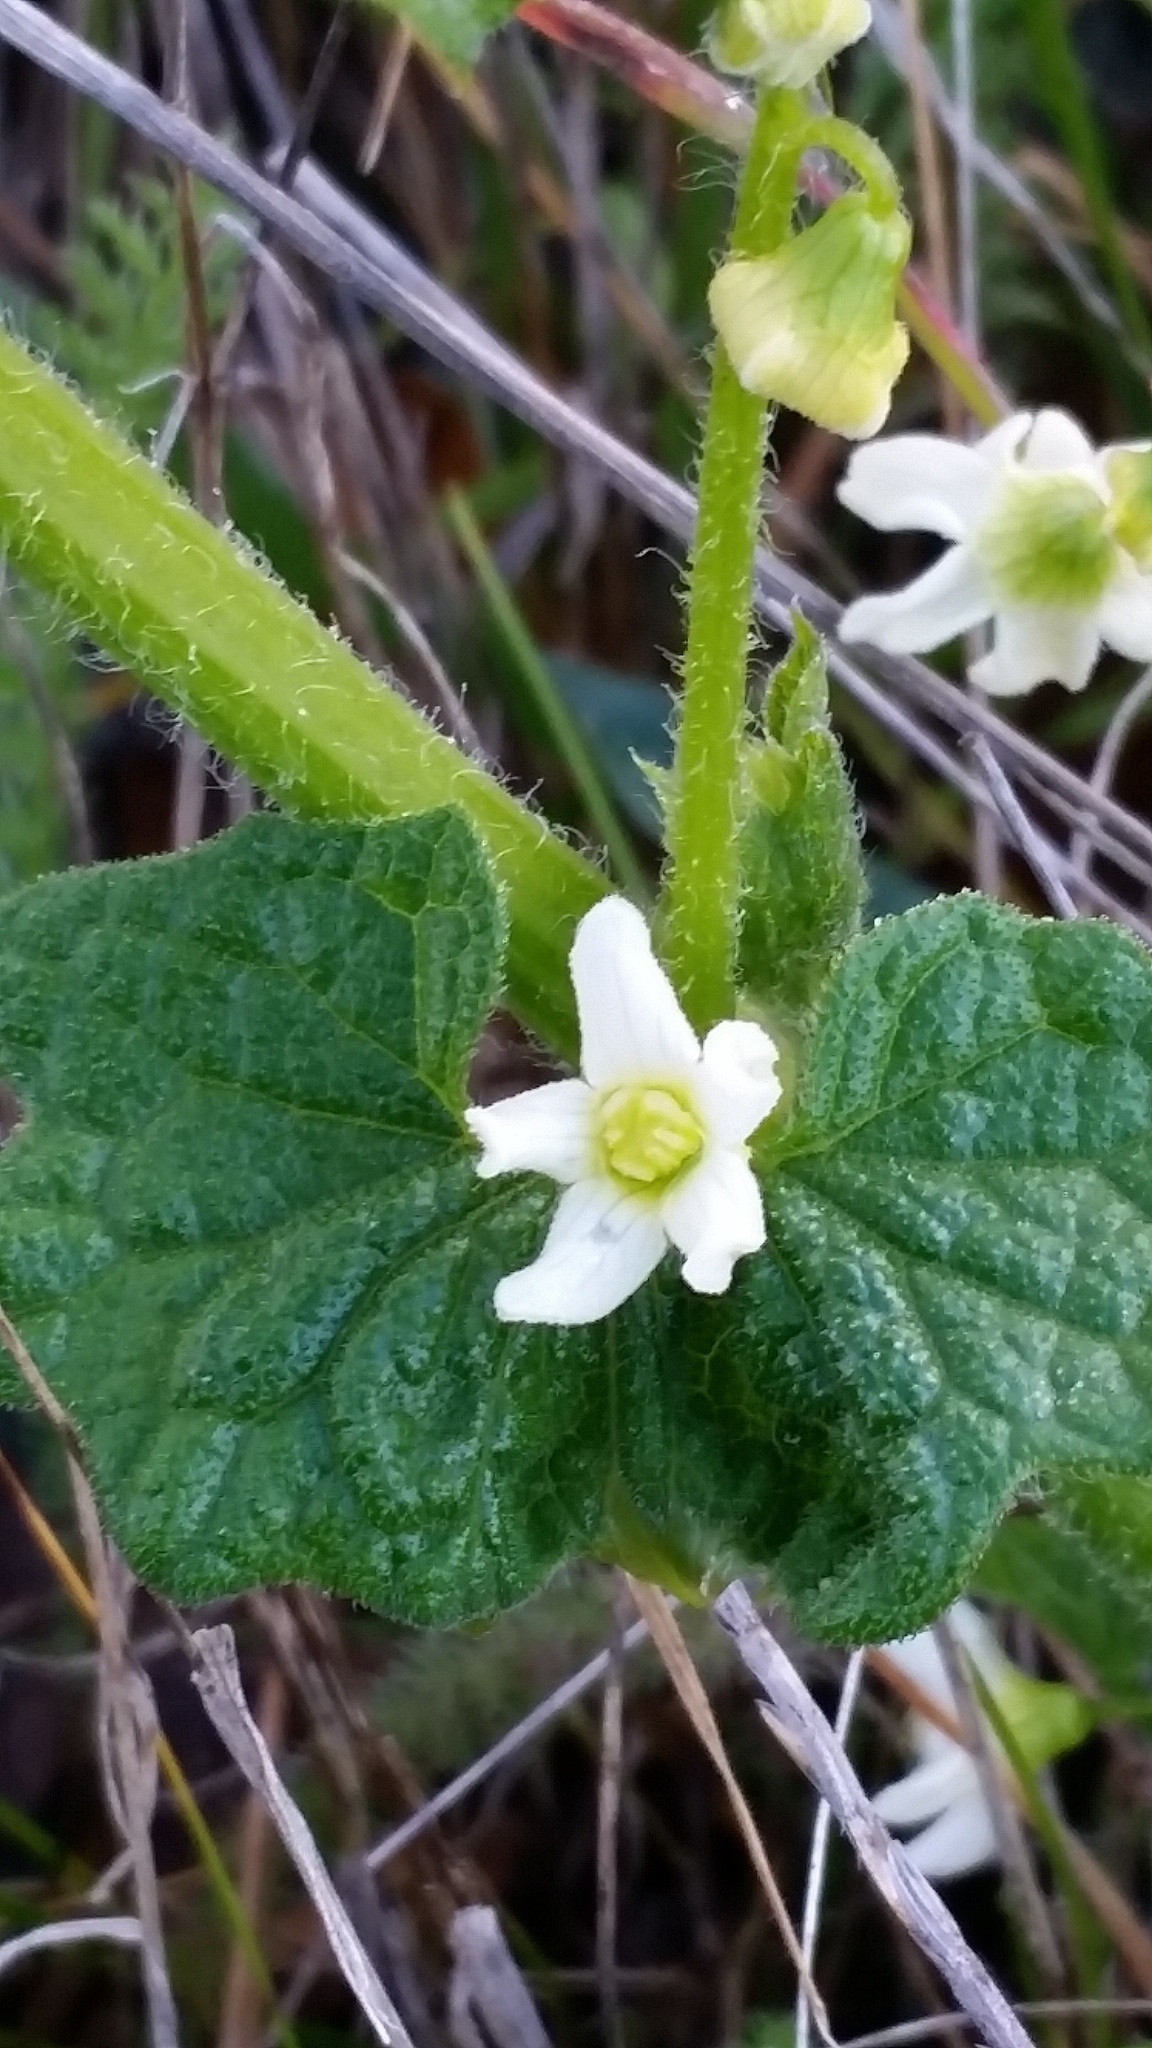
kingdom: Plantae
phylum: Tracheophyta
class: Magnoliopsida
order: Cucurbitales
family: Cucurbitaceae
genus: Marah
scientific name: Marah oregana
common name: Coastal manroot
